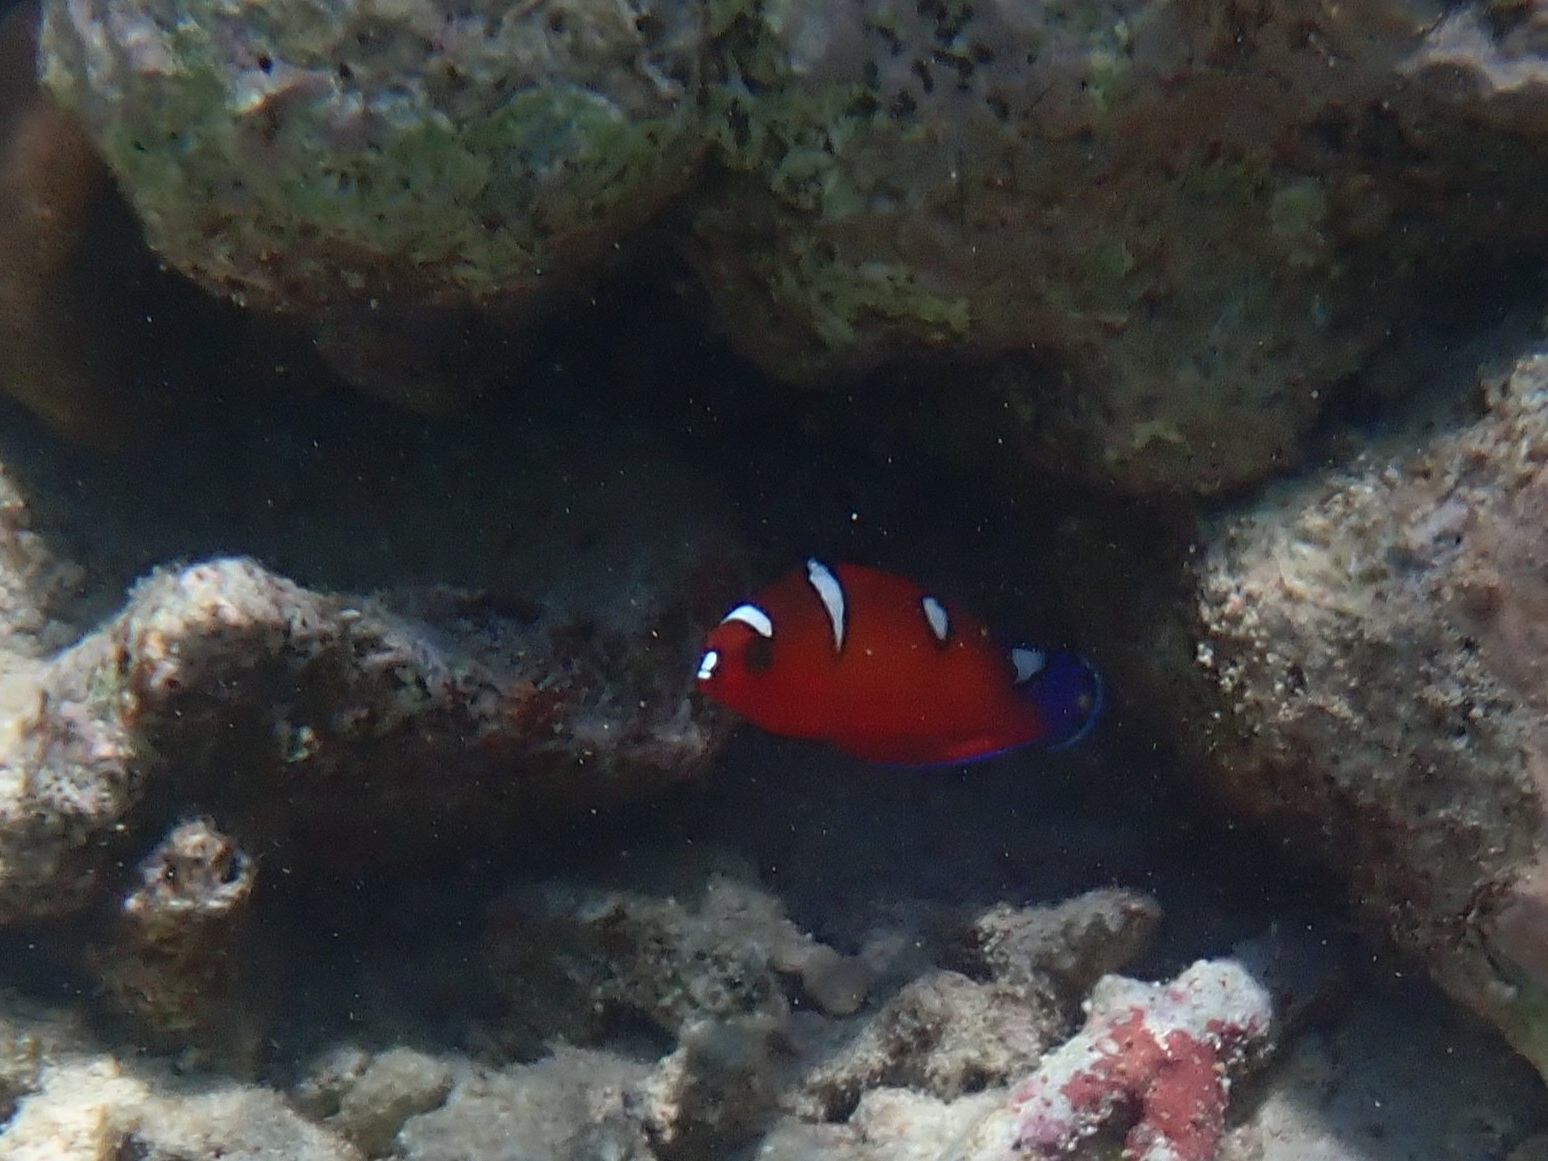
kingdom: Animalia
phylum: Chordata
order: Perciformes
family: Labridae
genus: Coris
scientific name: Coris gaimard
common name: Yellowtail coris
